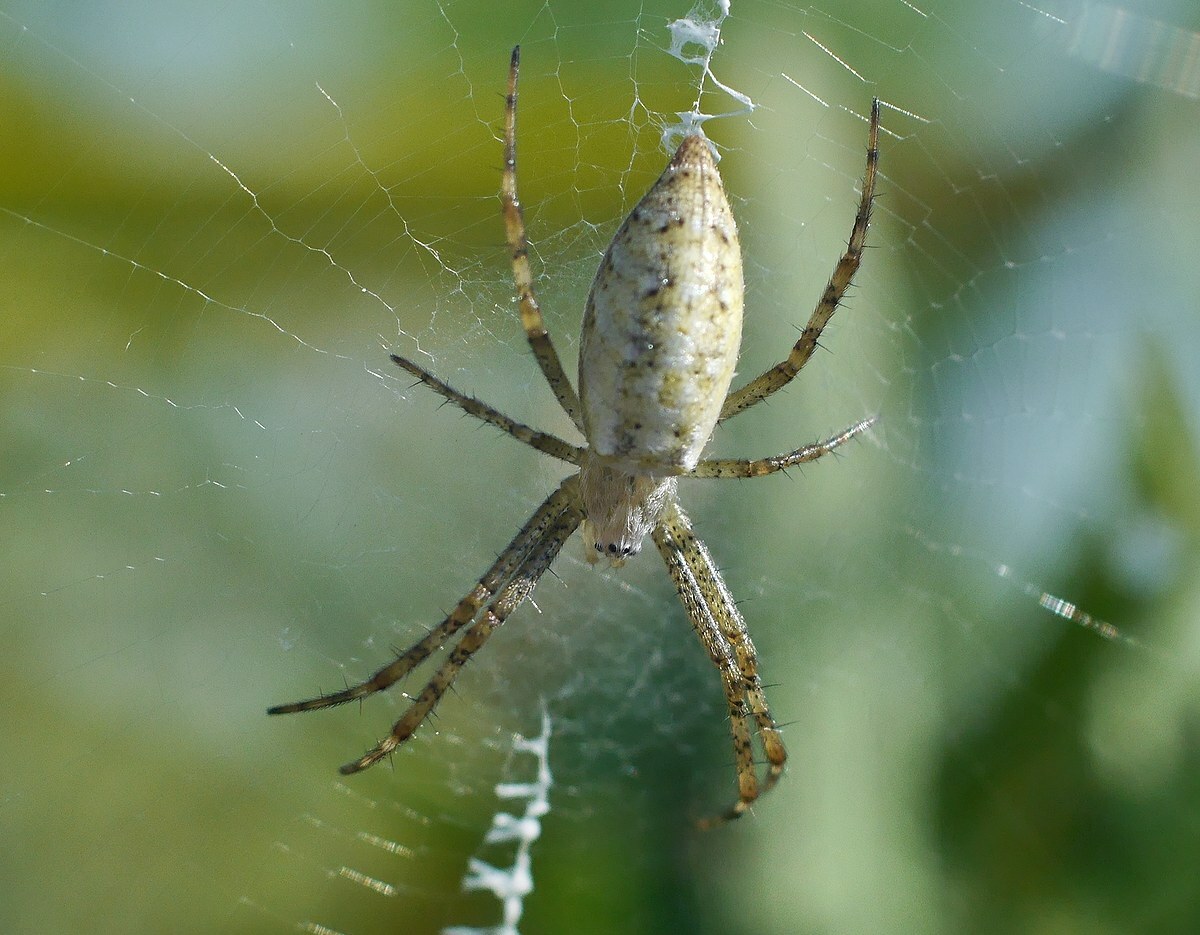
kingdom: Animalia
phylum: Arthropoda
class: Arachnida
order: Araneae
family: Araneidae
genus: Argiope
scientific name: Argiope bruennichi
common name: Wasp spider
